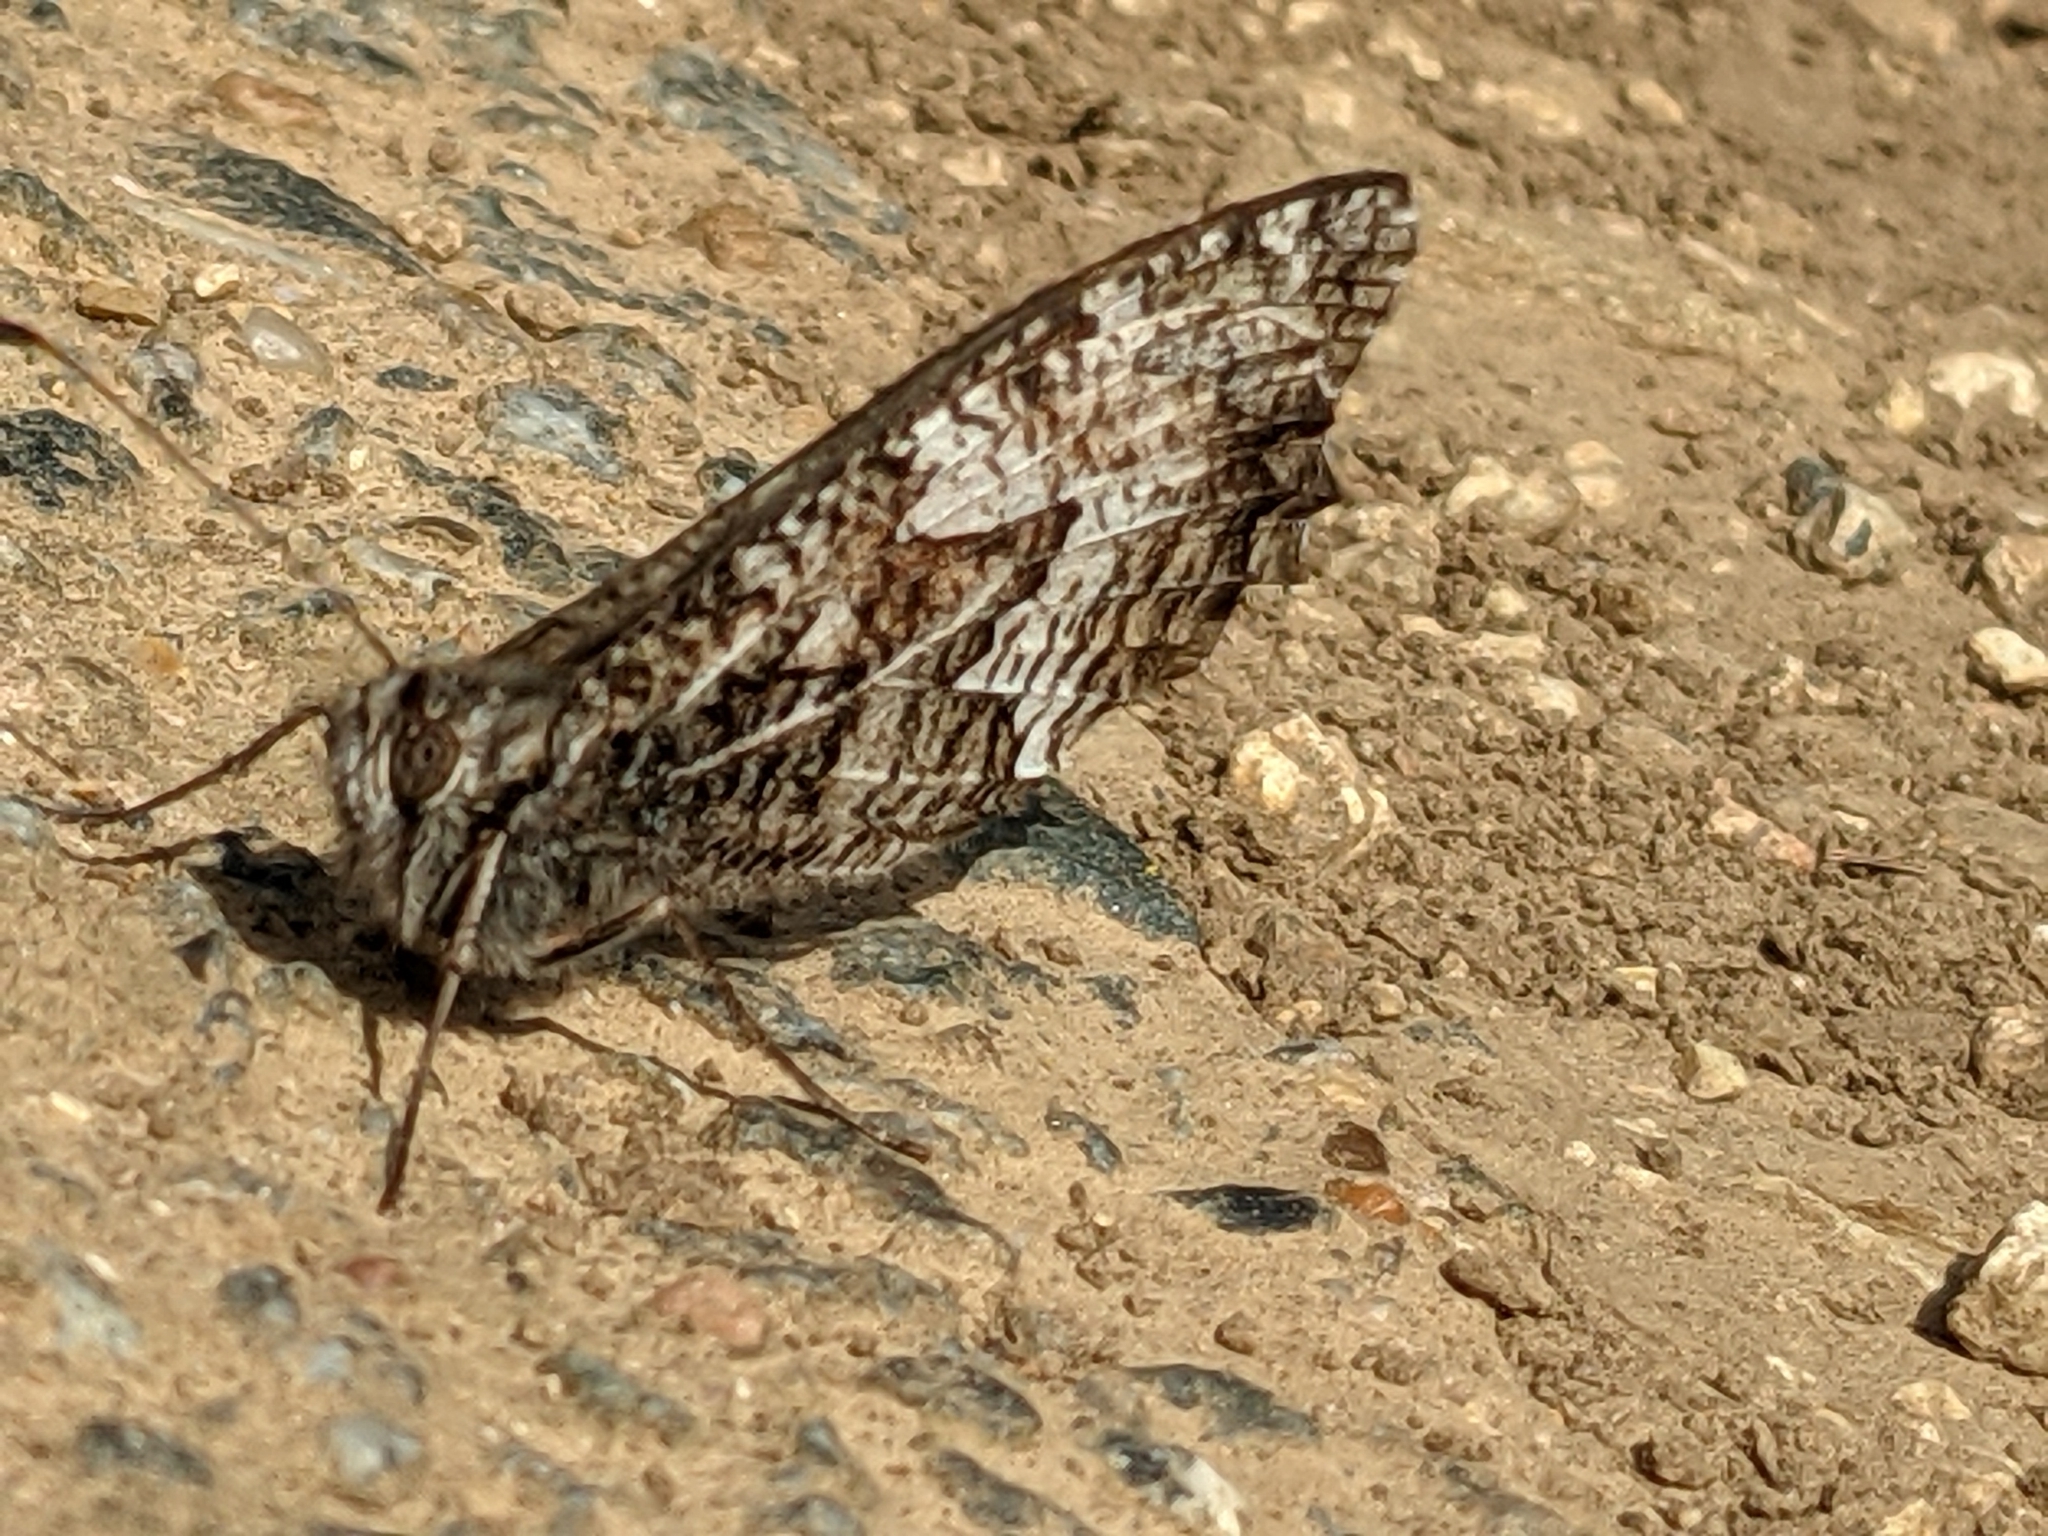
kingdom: Animalia
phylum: Arthropoda
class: Insecta
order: Lepidoptera
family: Nymphalidae
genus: Hipparchia
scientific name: Hipparchia semele
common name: Grayling
